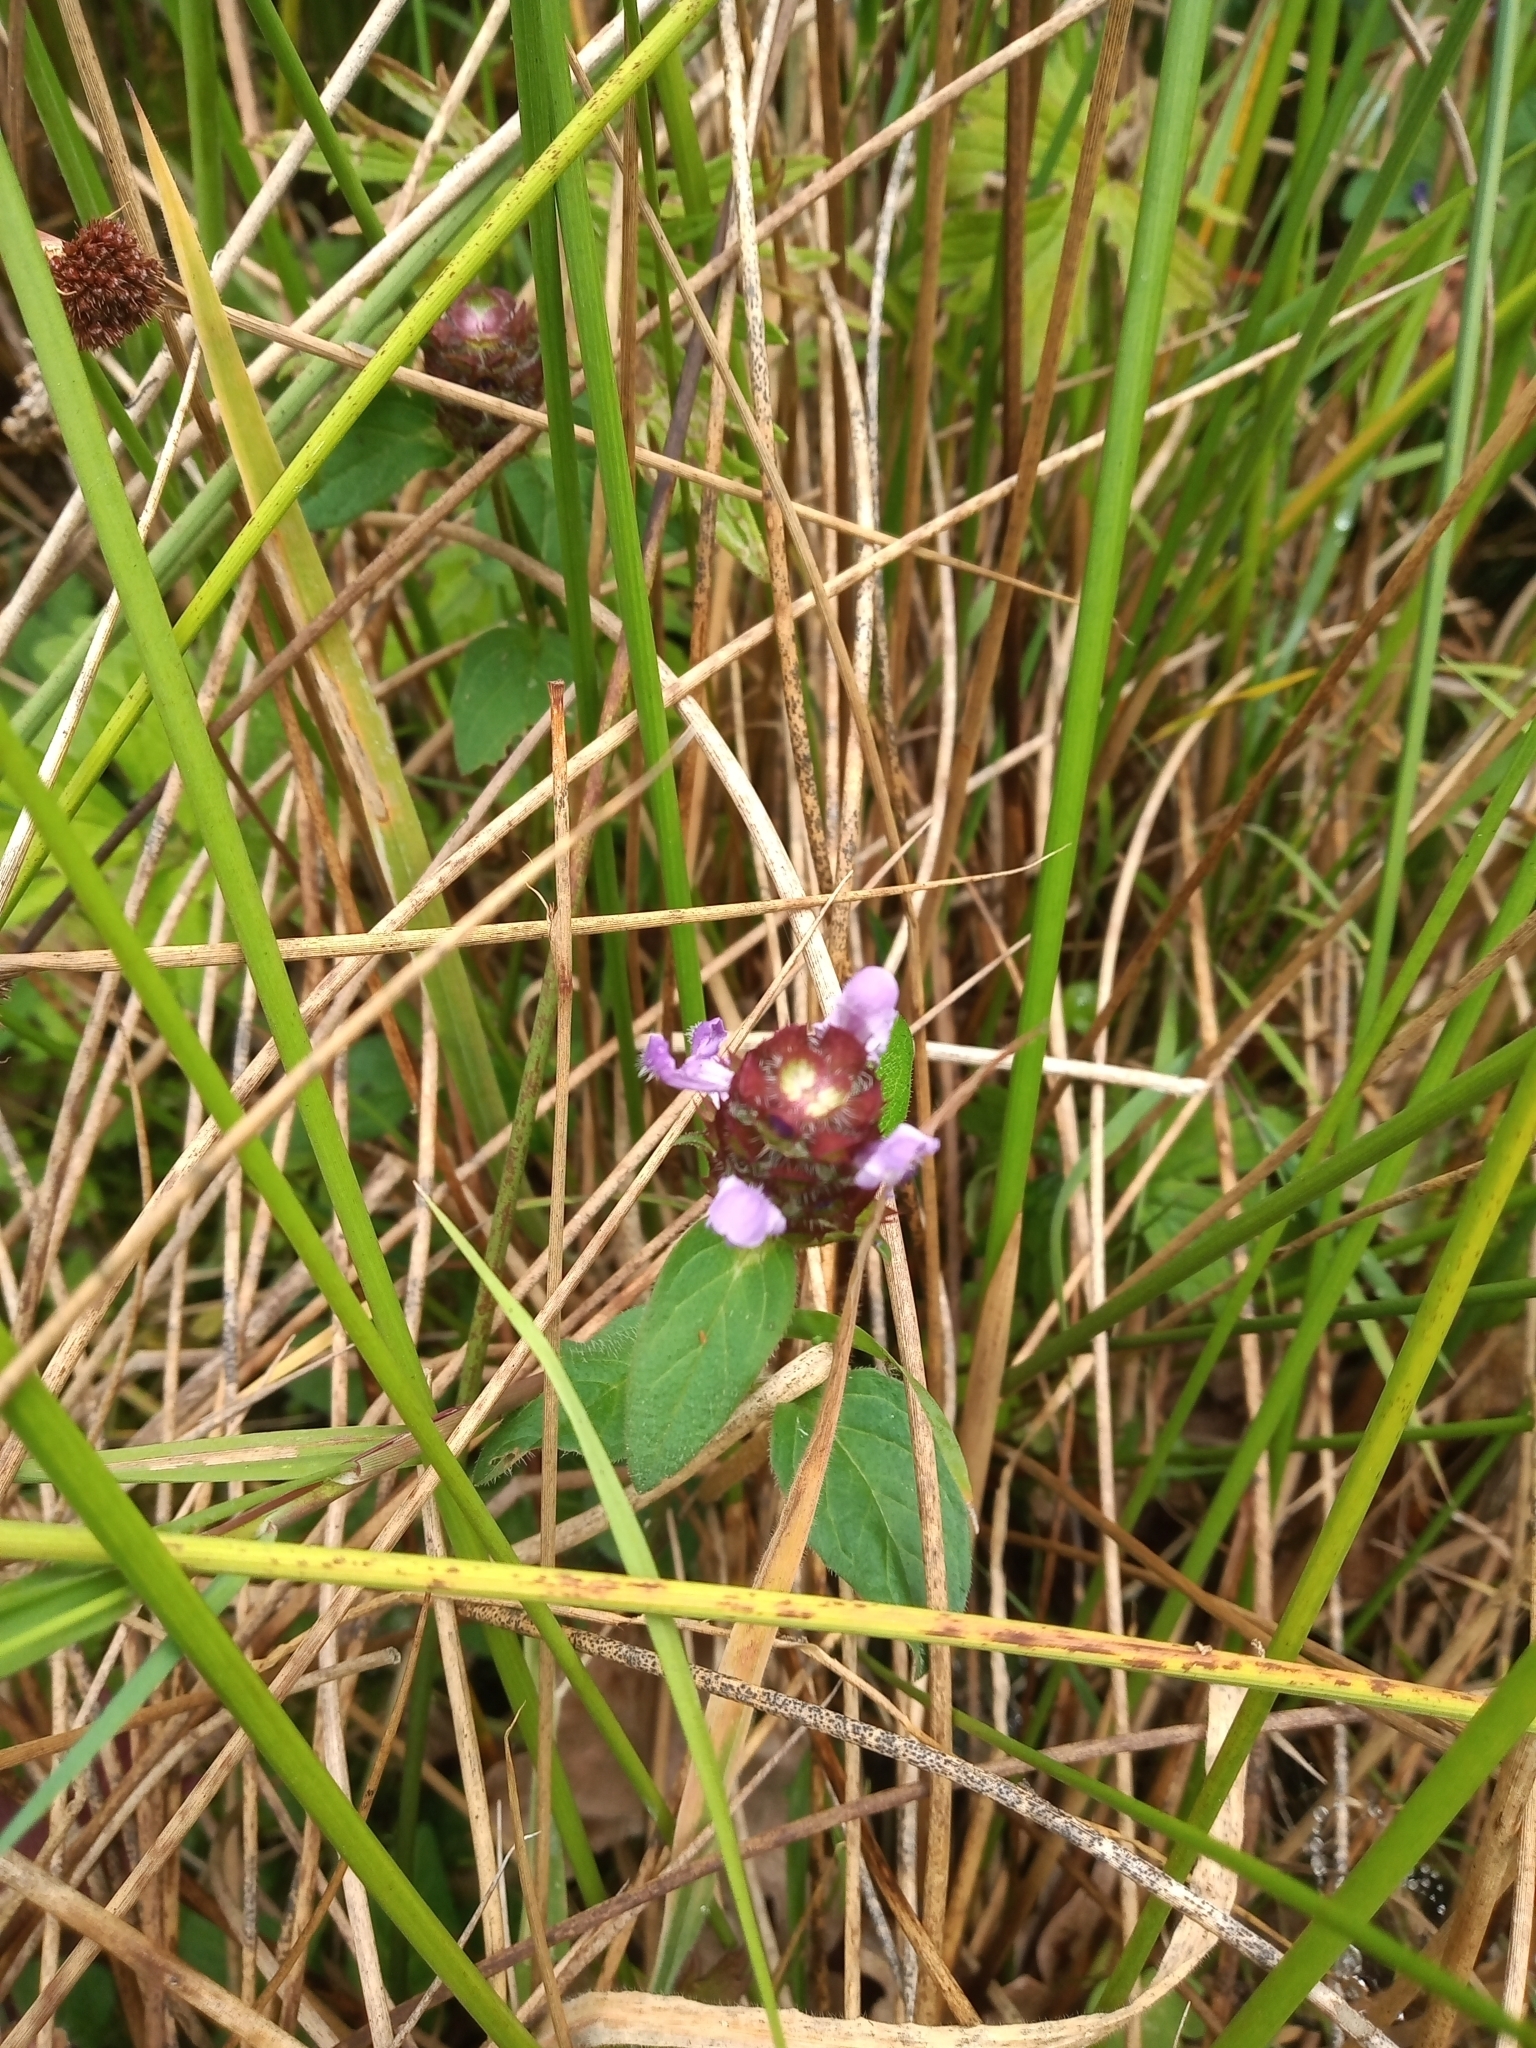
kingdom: Plantae
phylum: Tracheophyta
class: Magnoliopsida
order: Lamiales
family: Lamiaceae
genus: Prunella
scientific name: Prunella vulgaris
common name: Heal-all
